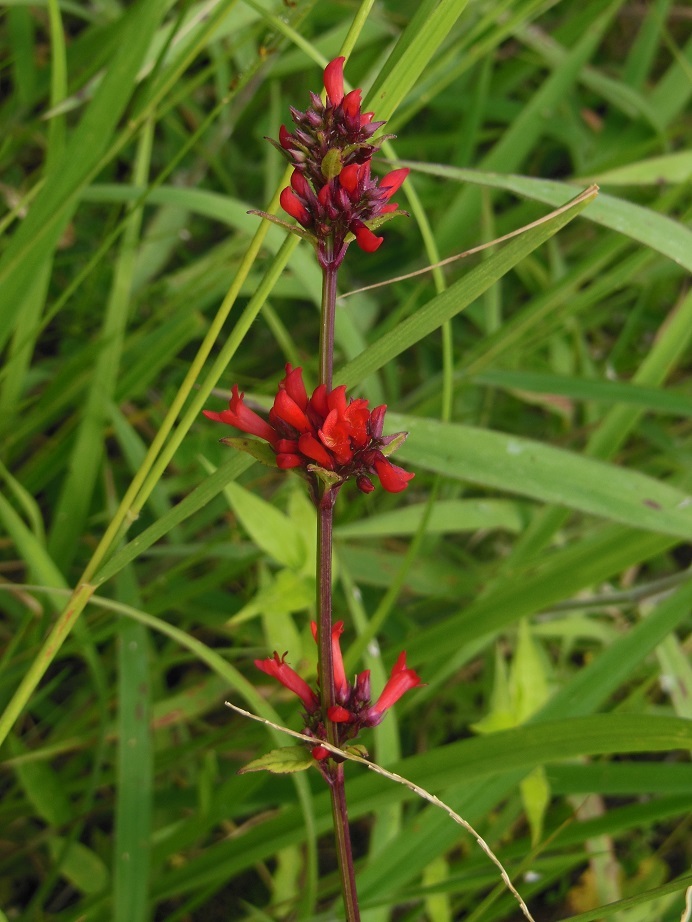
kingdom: Plantae
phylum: Tracheophyta
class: Magnoliopsida
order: Lamiales
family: Plantaginaceae
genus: Russelia
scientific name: Russelia verticillata
